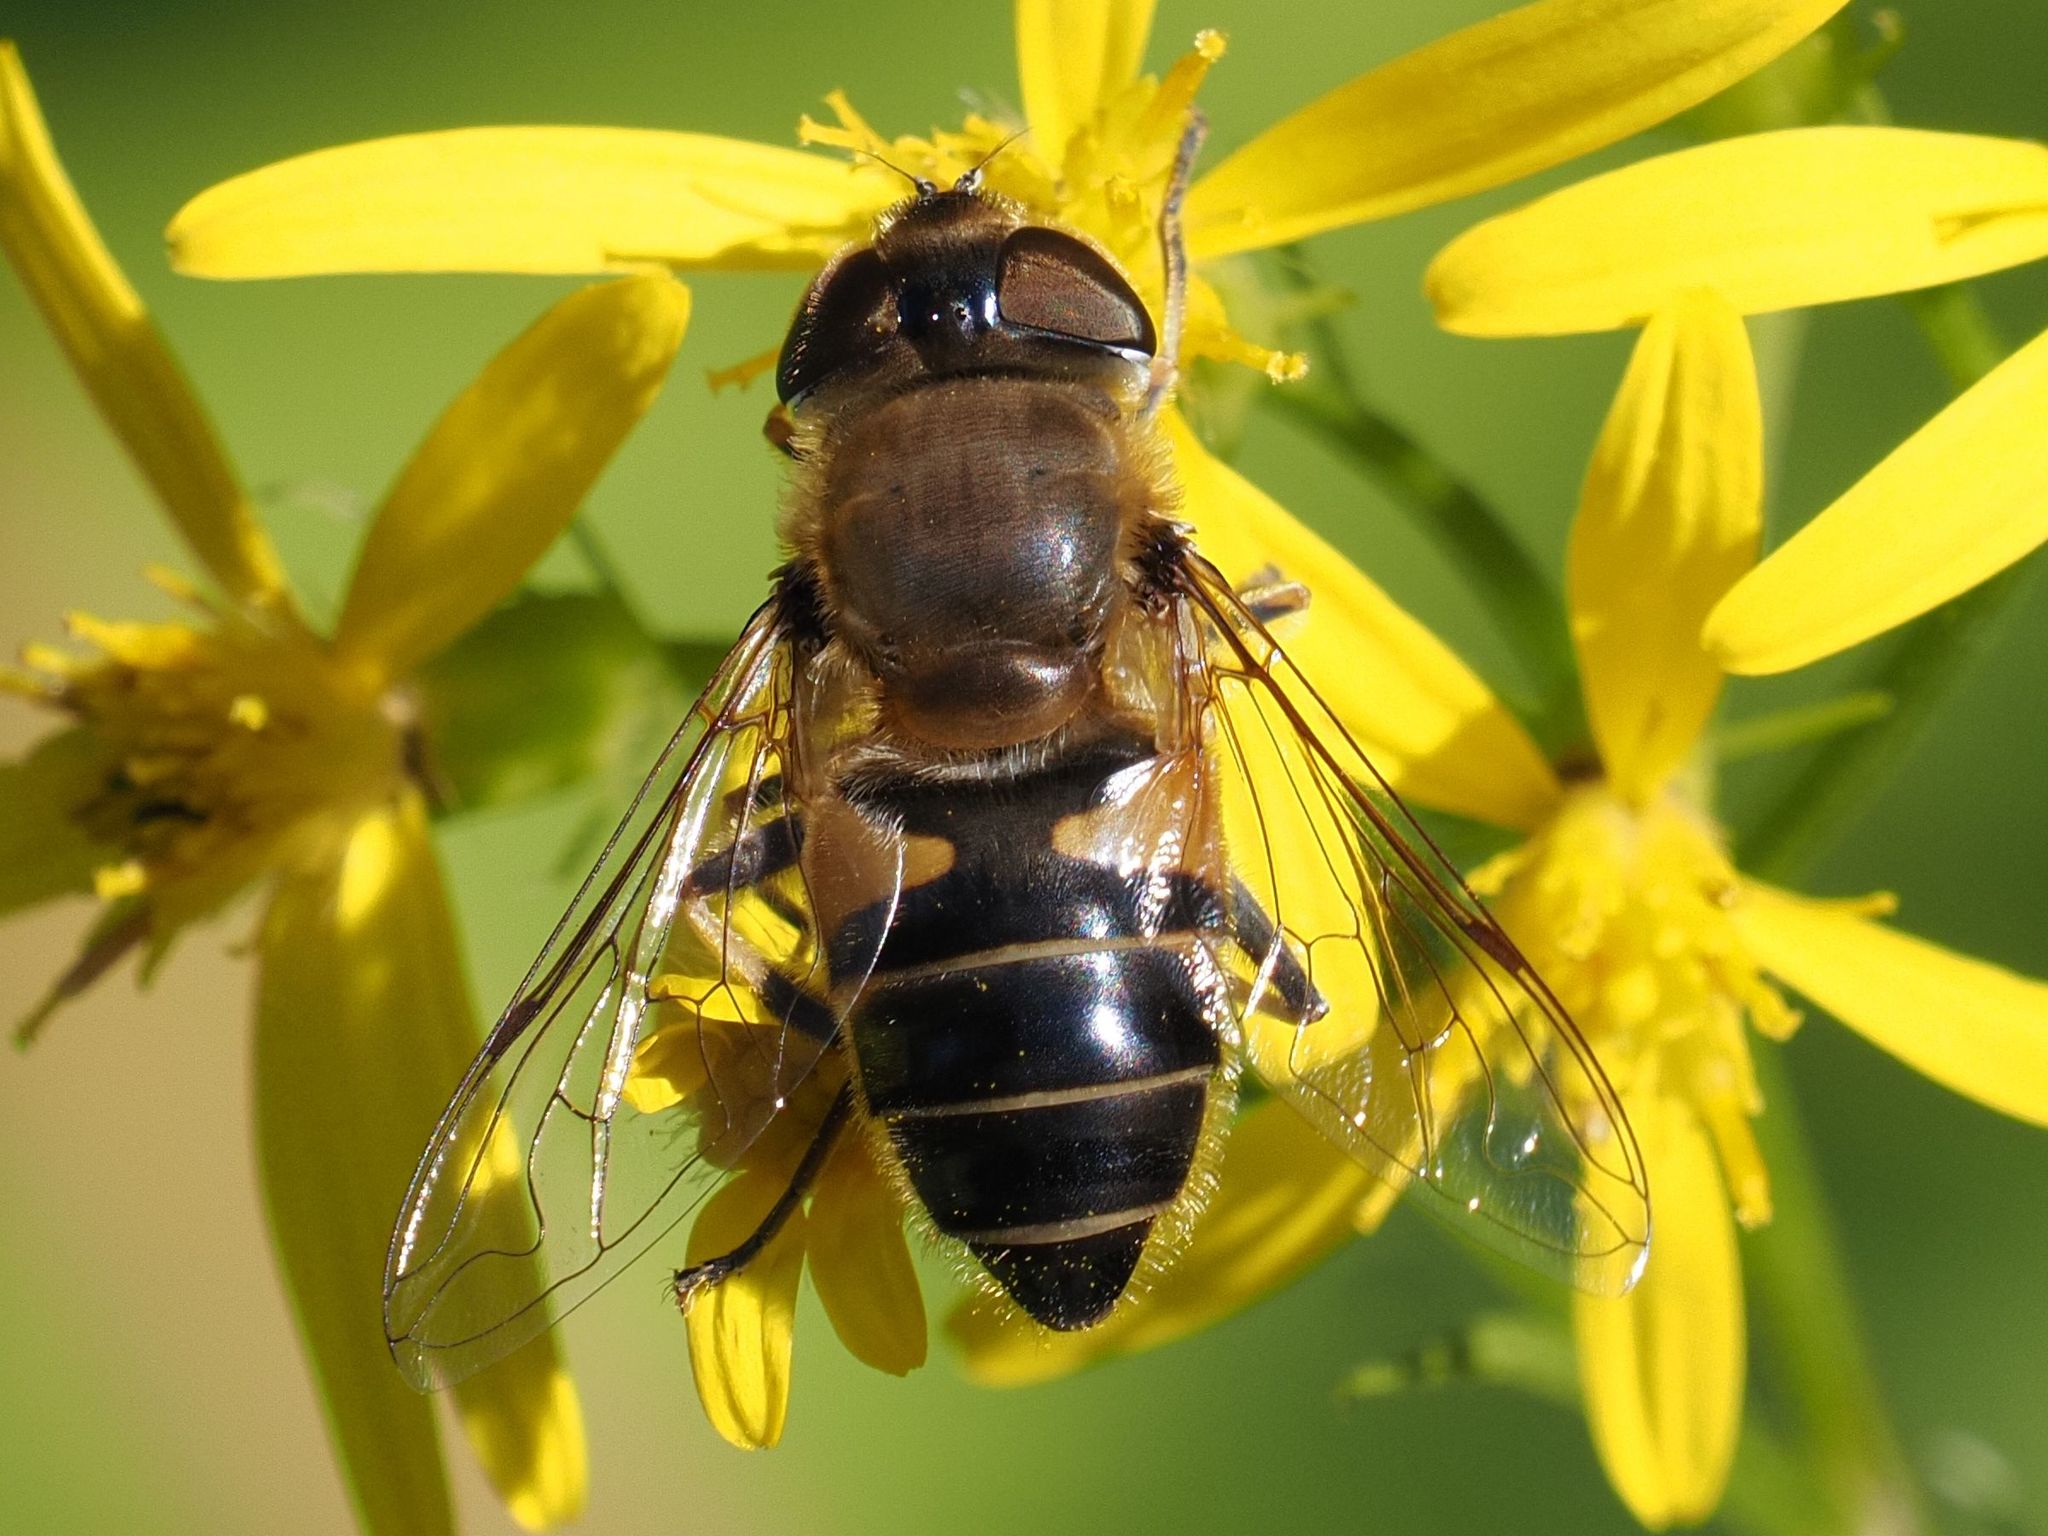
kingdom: Animalia
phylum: Arthropoda
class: Insecta
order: Diptera
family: Syrphidae
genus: Eristalis
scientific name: Eristalis pertinax
